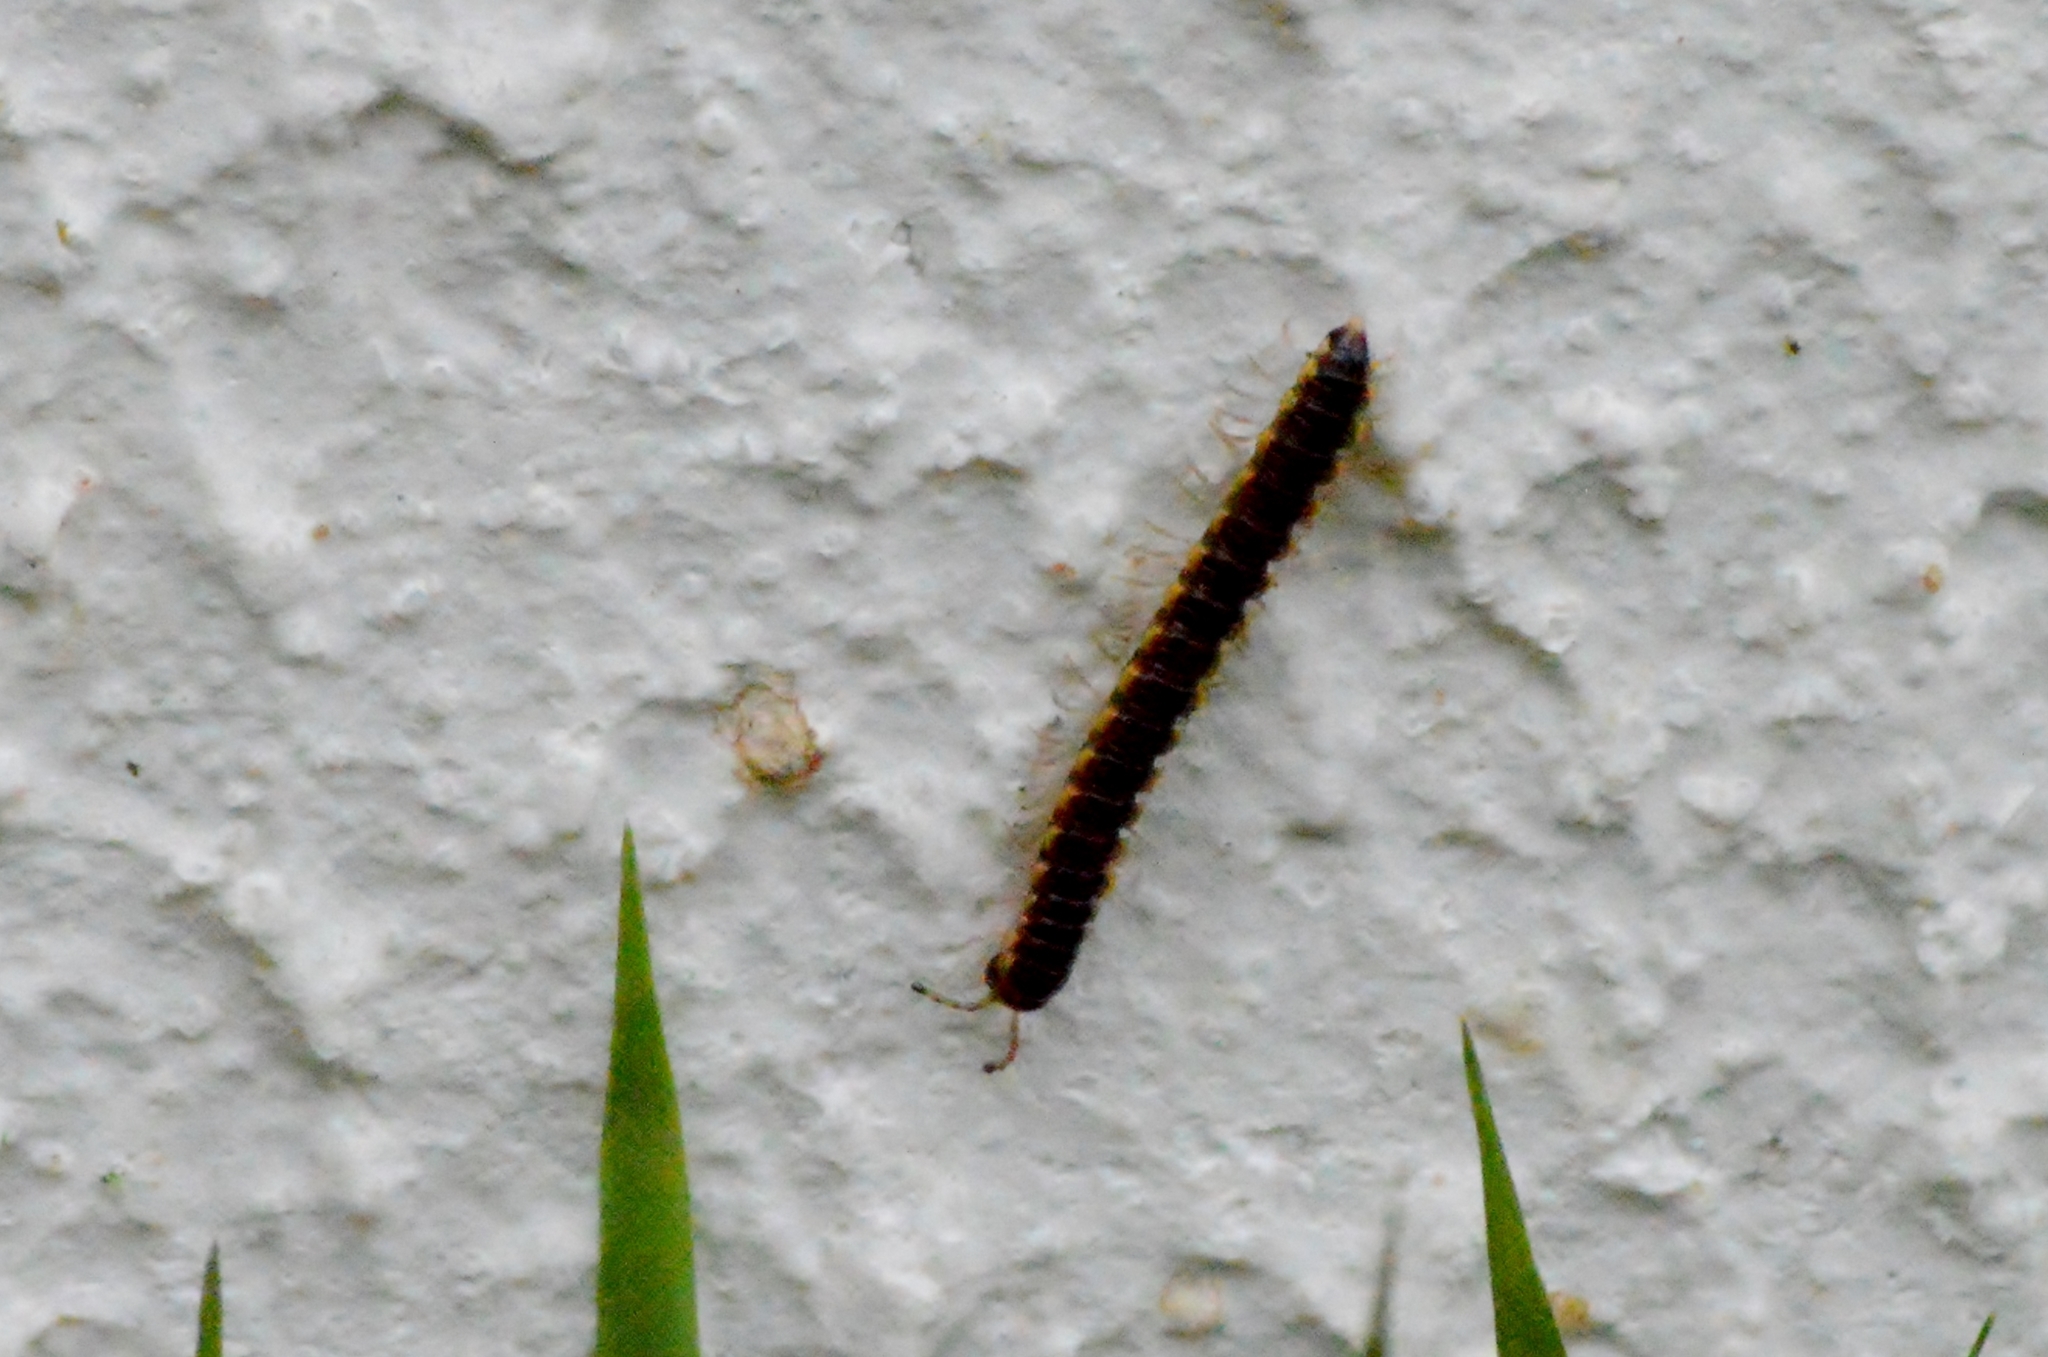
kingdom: Animalia
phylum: Arthropoda
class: Diplopoda
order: Polydesmida
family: Paradoxosomatidae
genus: Oxidus
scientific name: Oxidus gracilis
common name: Greenhouse millipede
